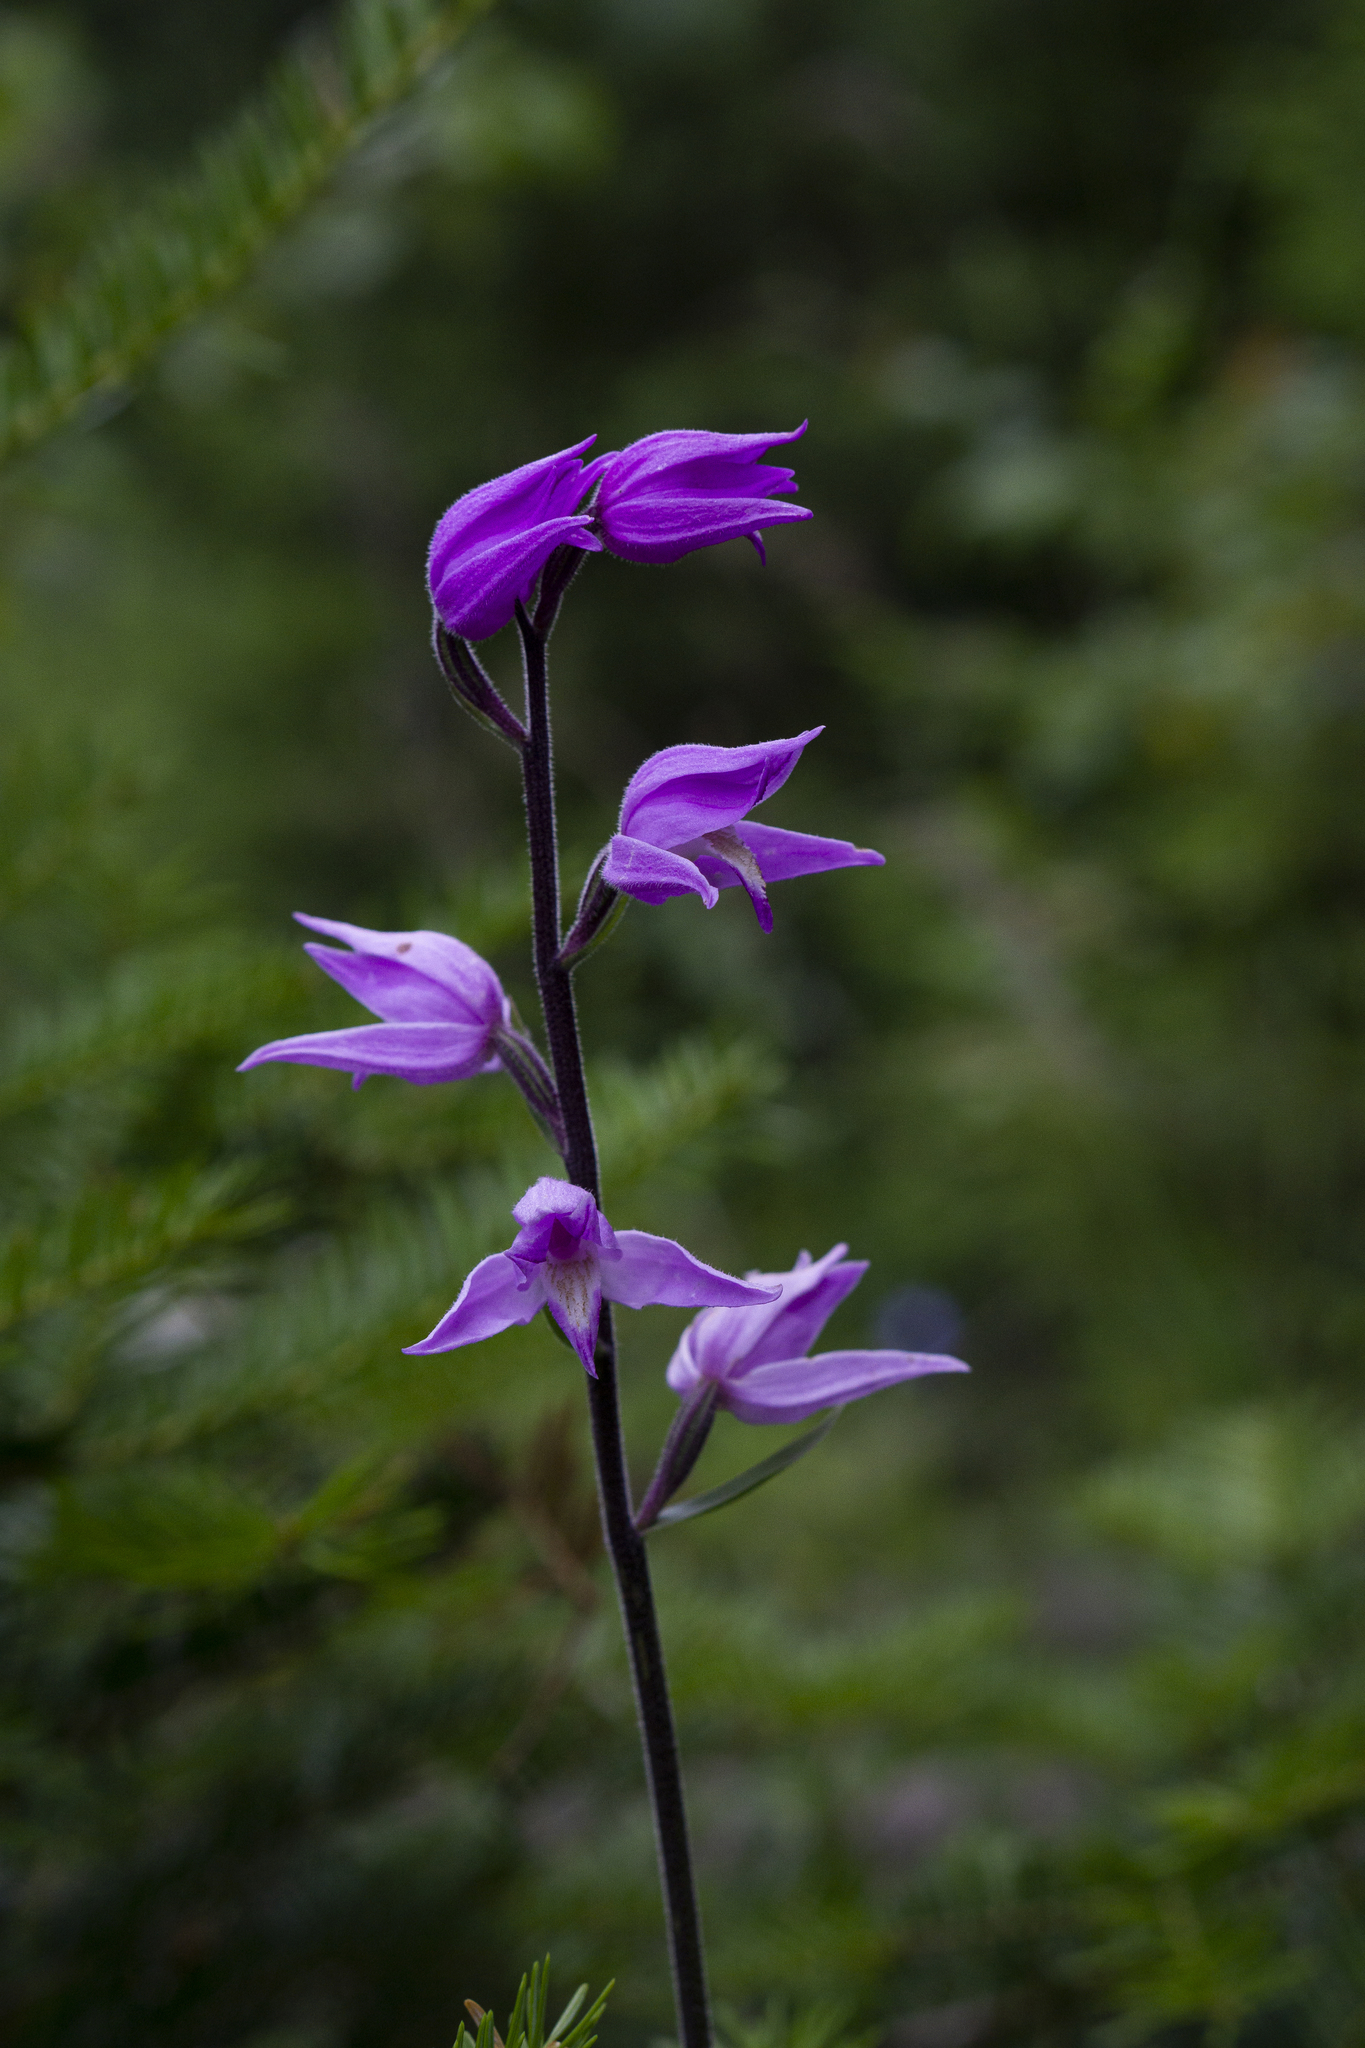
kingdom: Plantae
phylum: Tracheophyta
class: Liliopsida
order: Asparagales
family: Orchidaceae
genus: Cephalanthera
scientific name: Cephalanthera rubra
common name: Red helleborine
